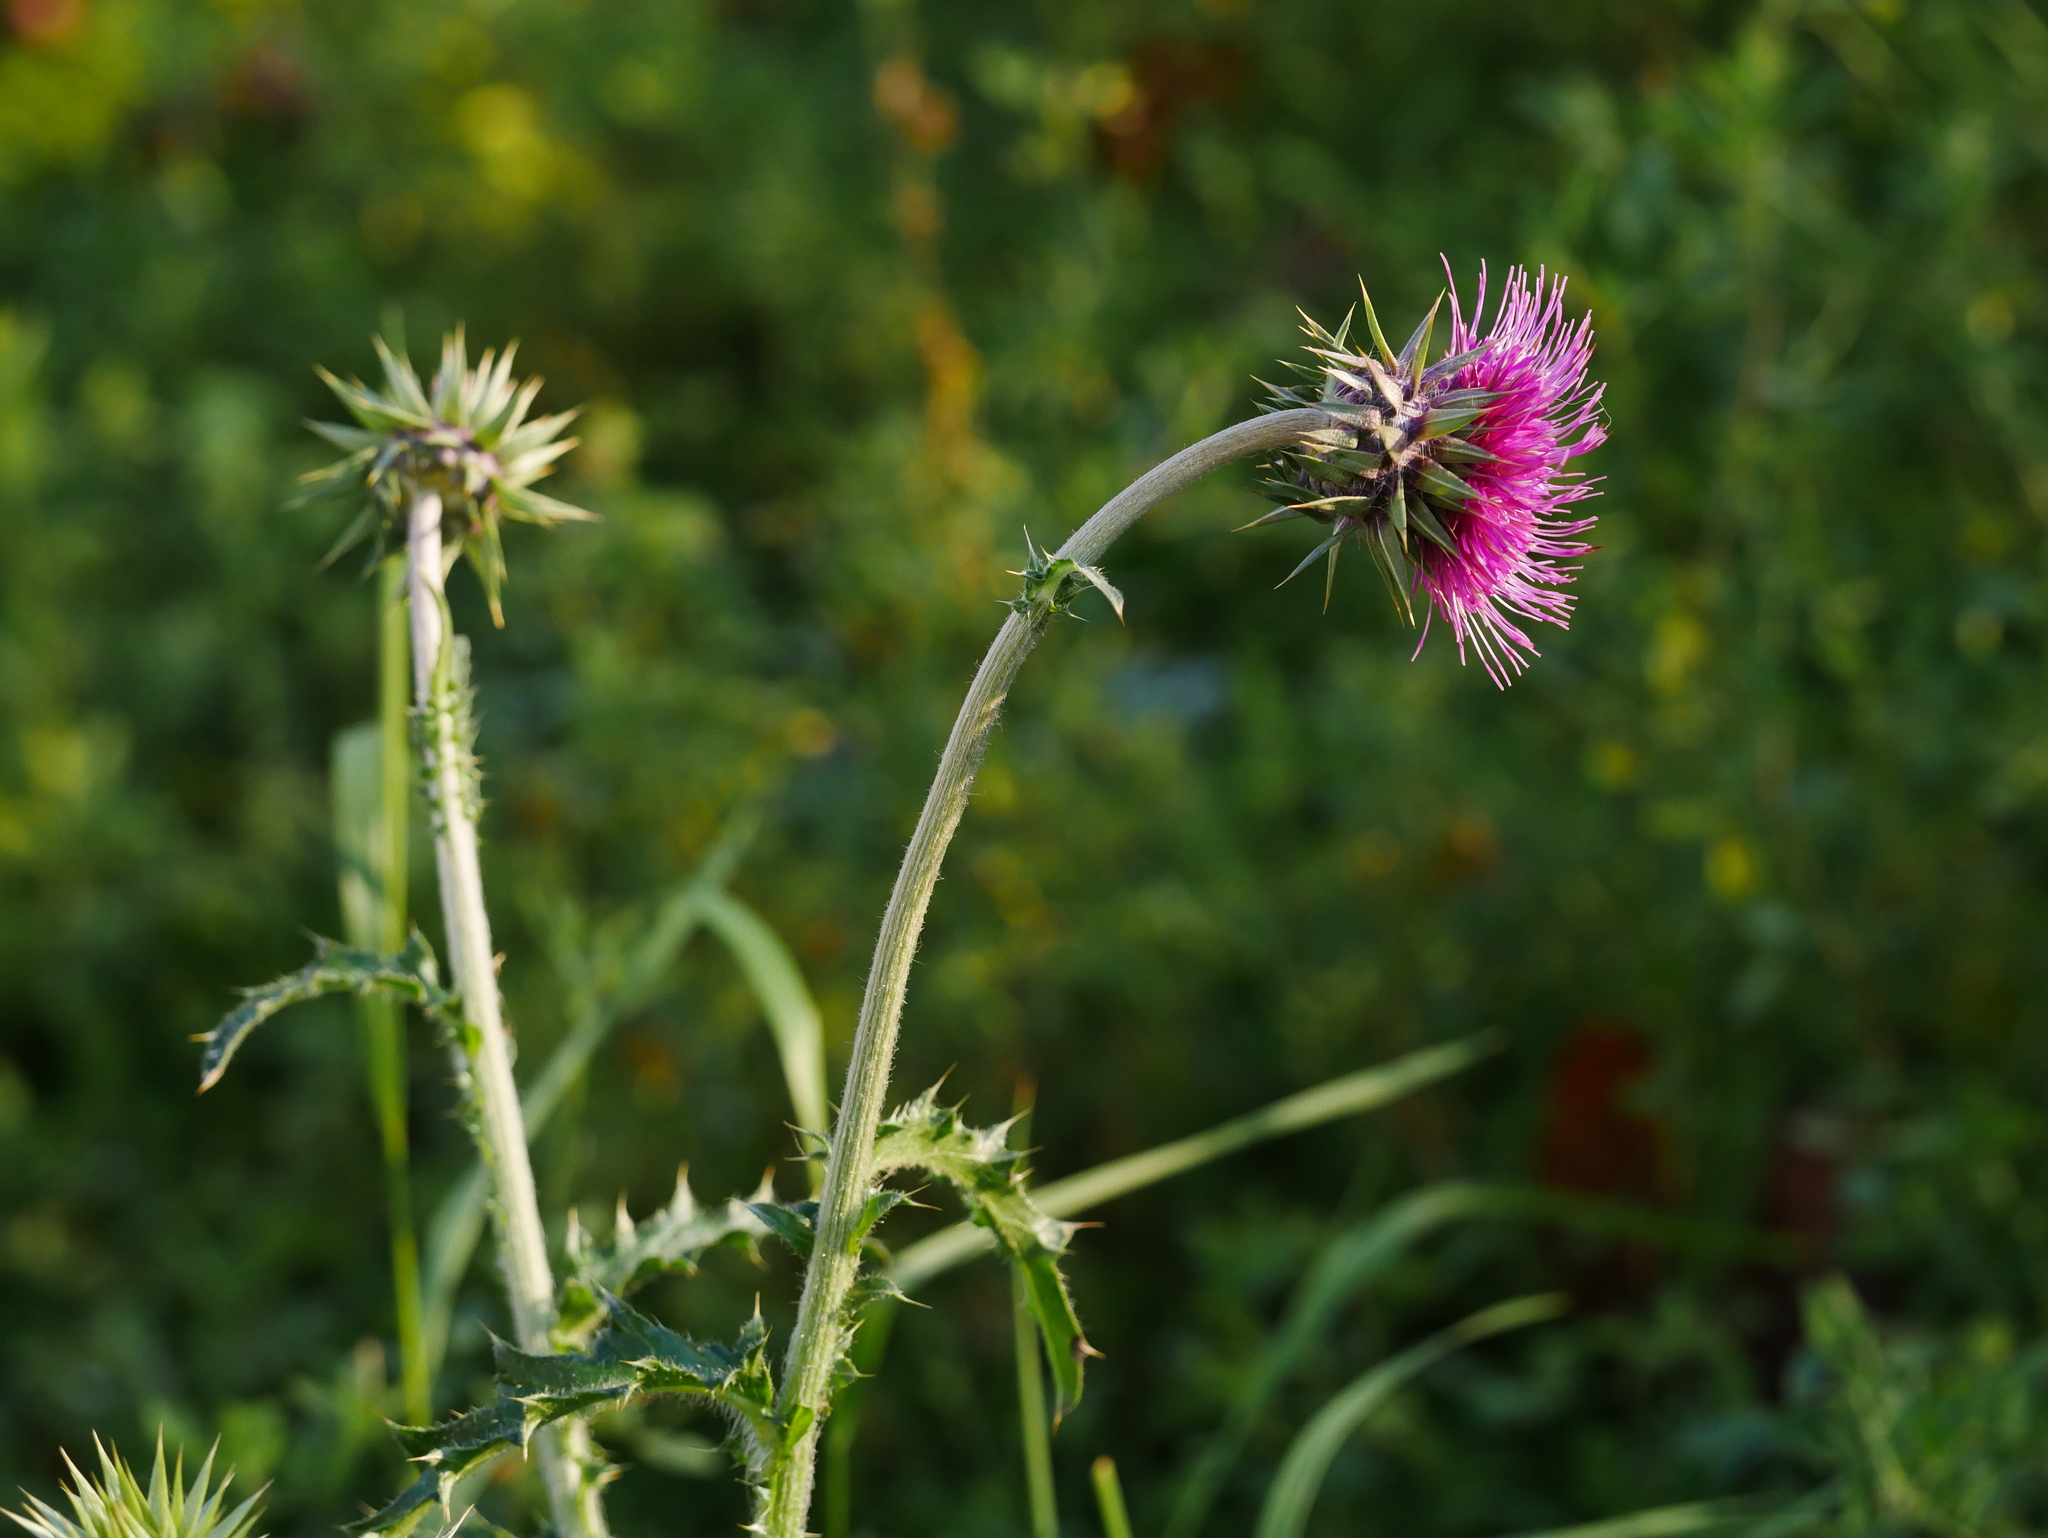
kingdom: Plantae
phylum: Tracheophyta
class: Magnoliopsida
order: Asterales
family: Asteraceae
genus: Carduus
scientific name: Carduus nutans
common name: Musk thistle
